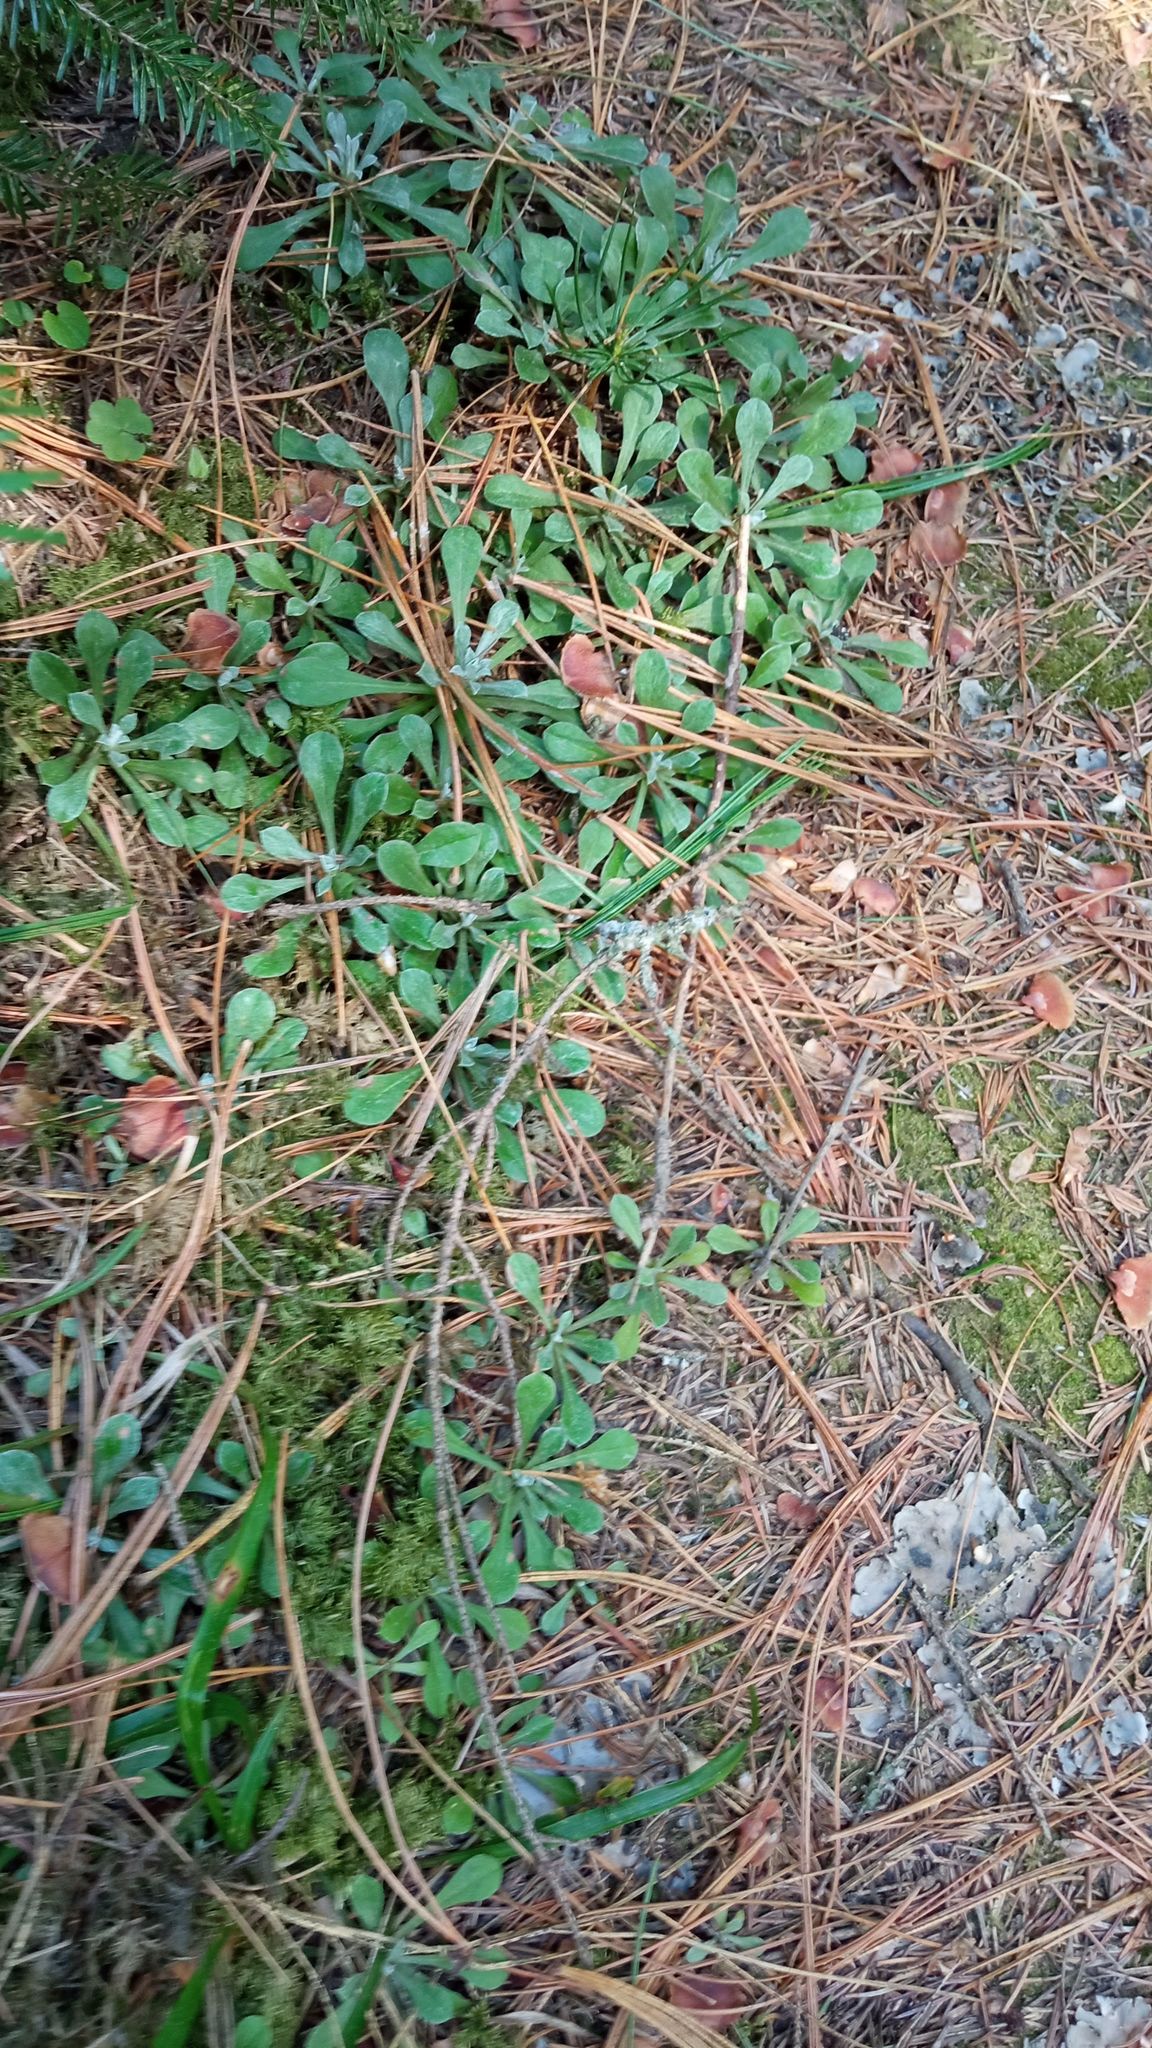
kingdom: Plantae
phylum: Tracheophyta
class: Magnoliopsida
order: Asterales
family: Asteraceae
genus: Antennaria
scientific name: Antennaria dioica
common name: Mountain everlasting
